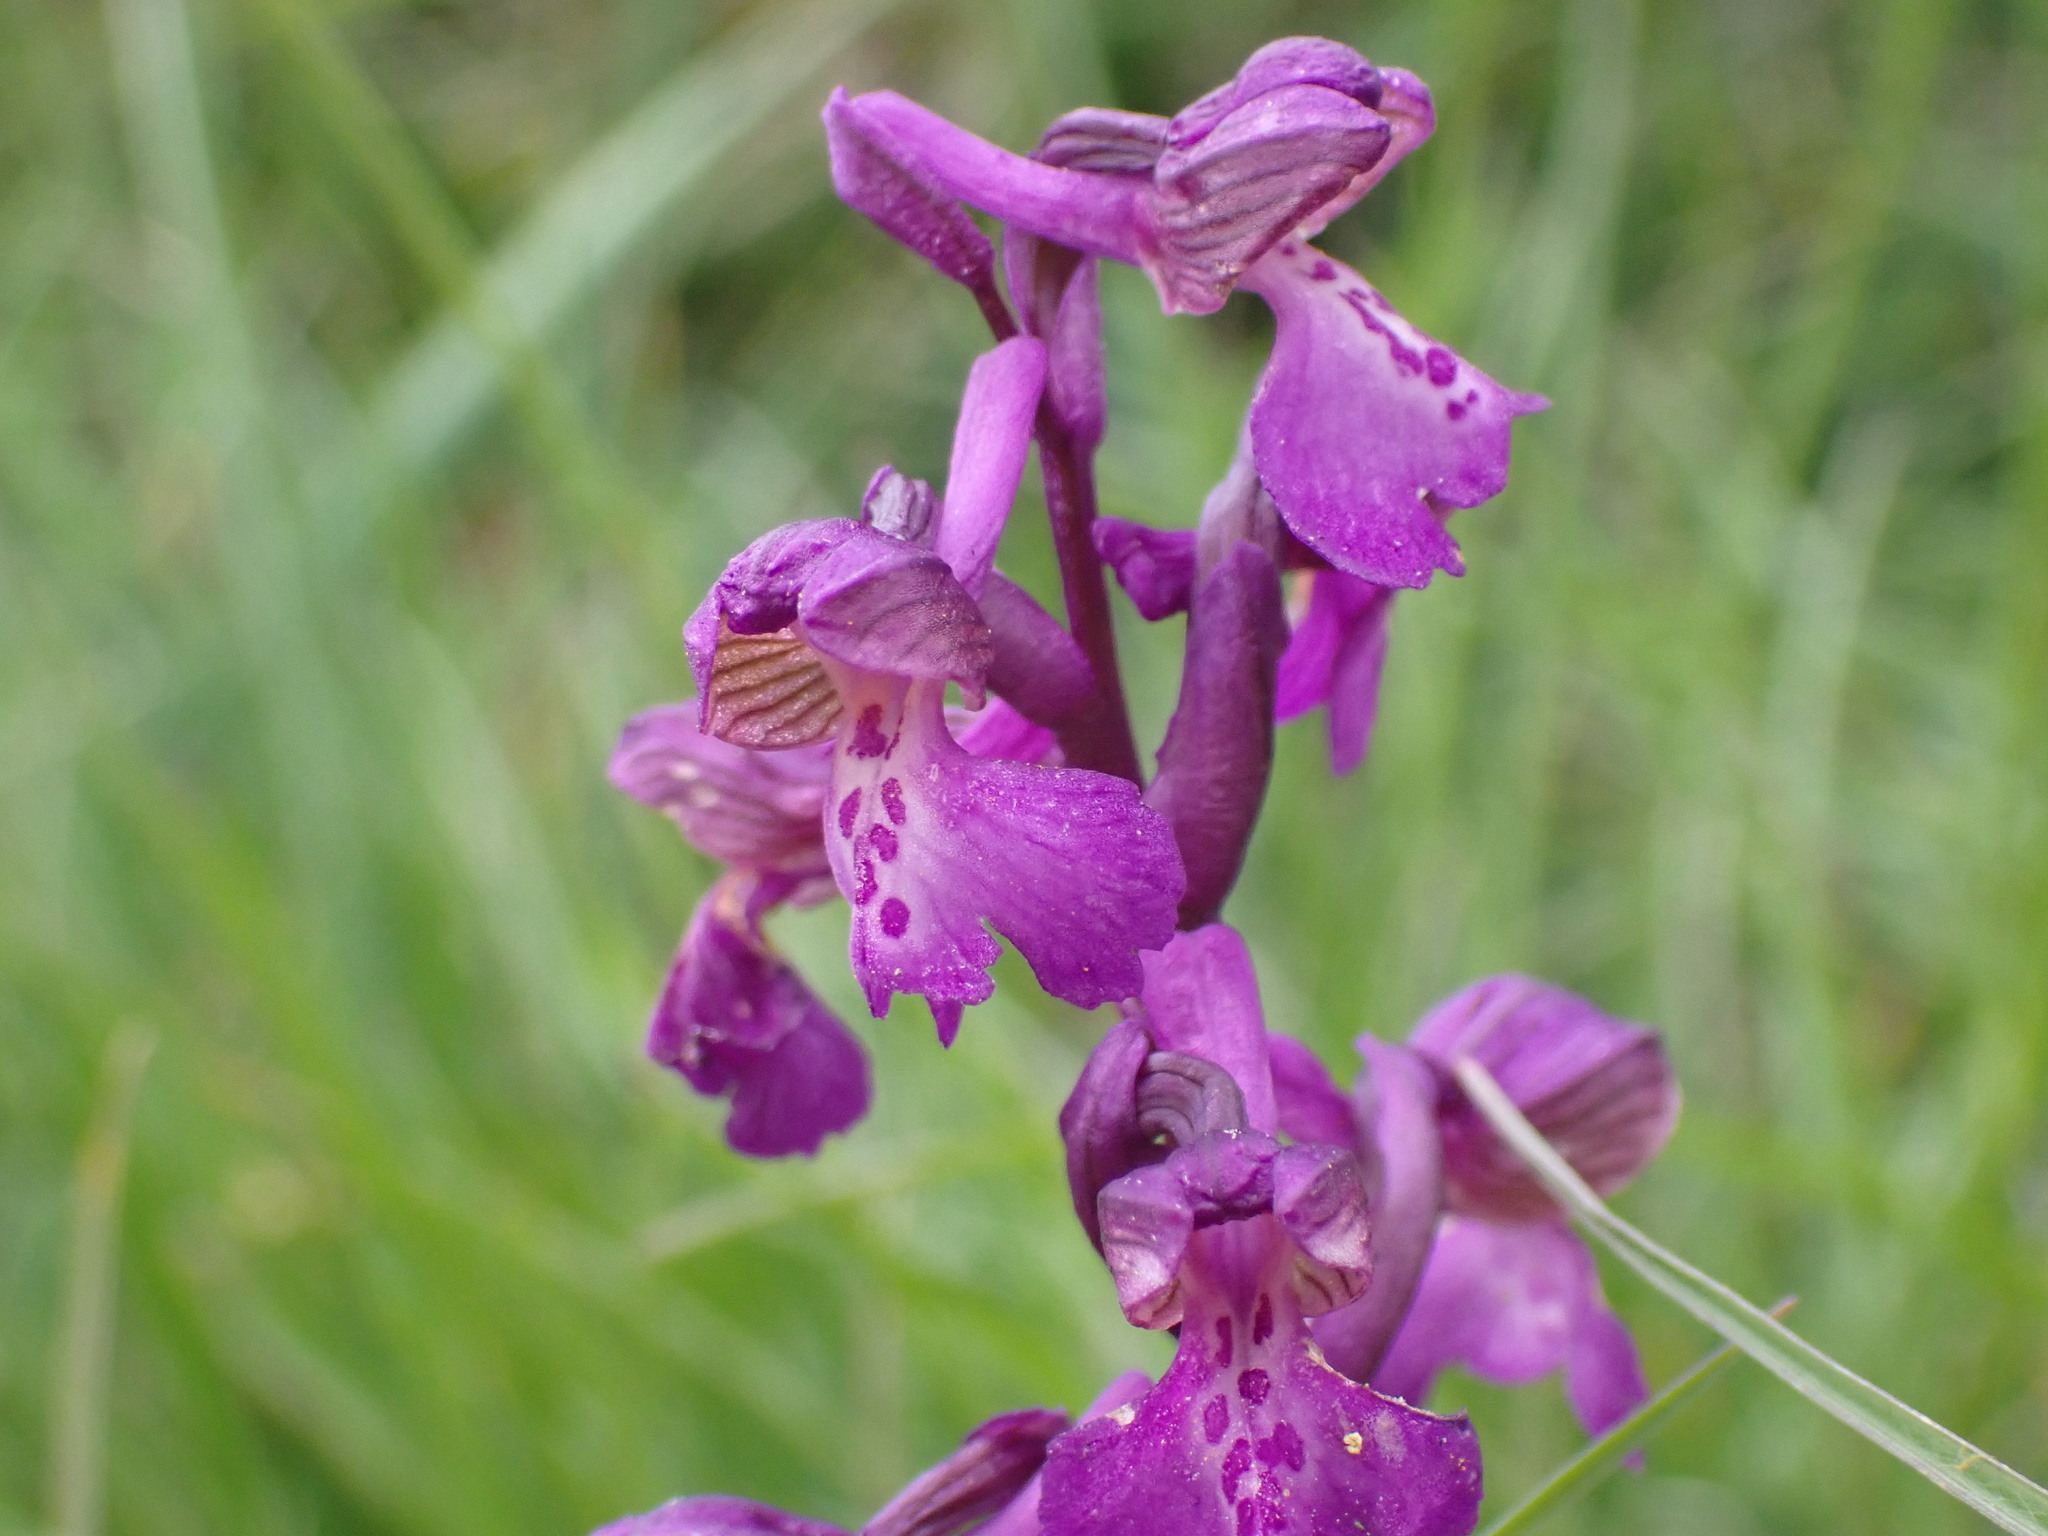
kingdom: Plantae
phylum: Tracheophyta
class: Liliopsida
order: Asparagales
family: Orchidaceae
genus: Anacamptis
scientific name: Anacamptis morio
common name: Green-winged orchid
